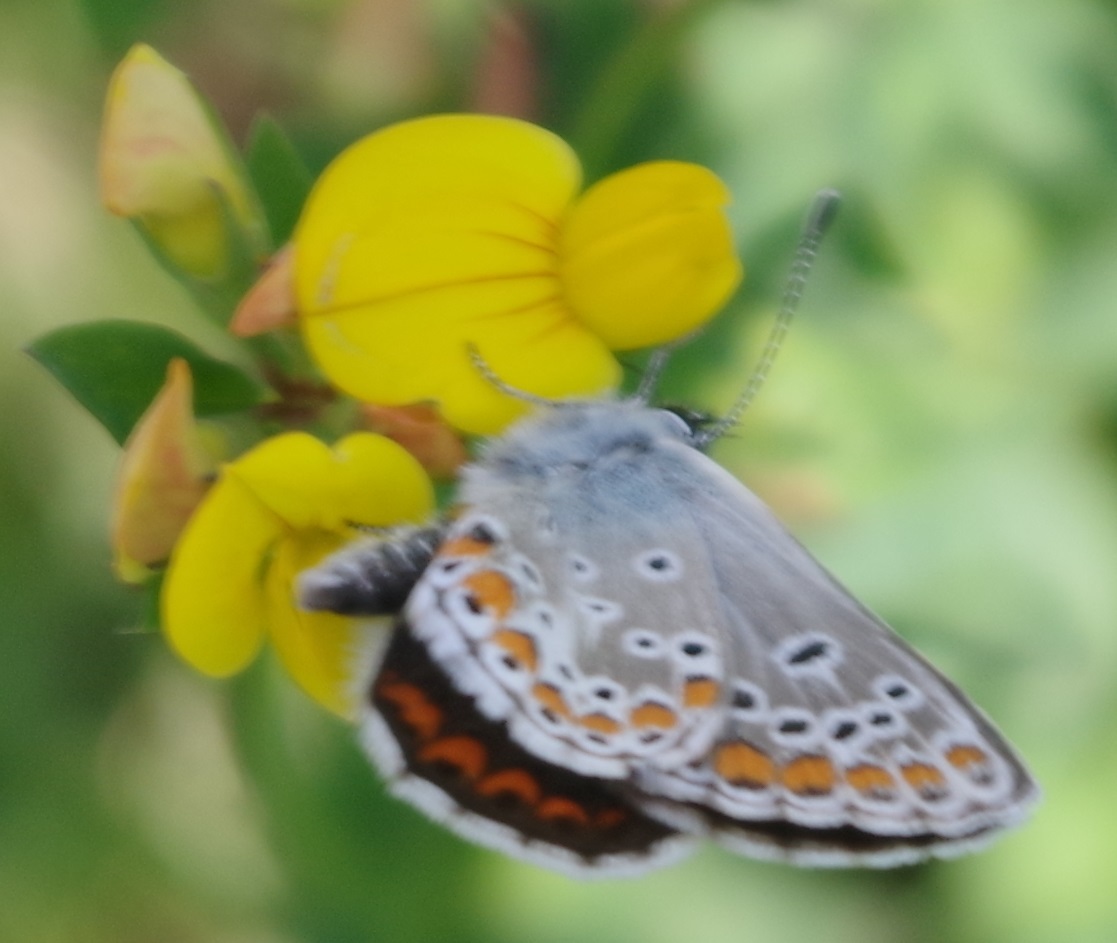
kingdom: Animalia
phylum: Arthropoda
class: Insecta
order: Lepidoptera
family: Lycaenidae
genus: Aricia
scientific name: Aricia agestis
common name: Brown argus
